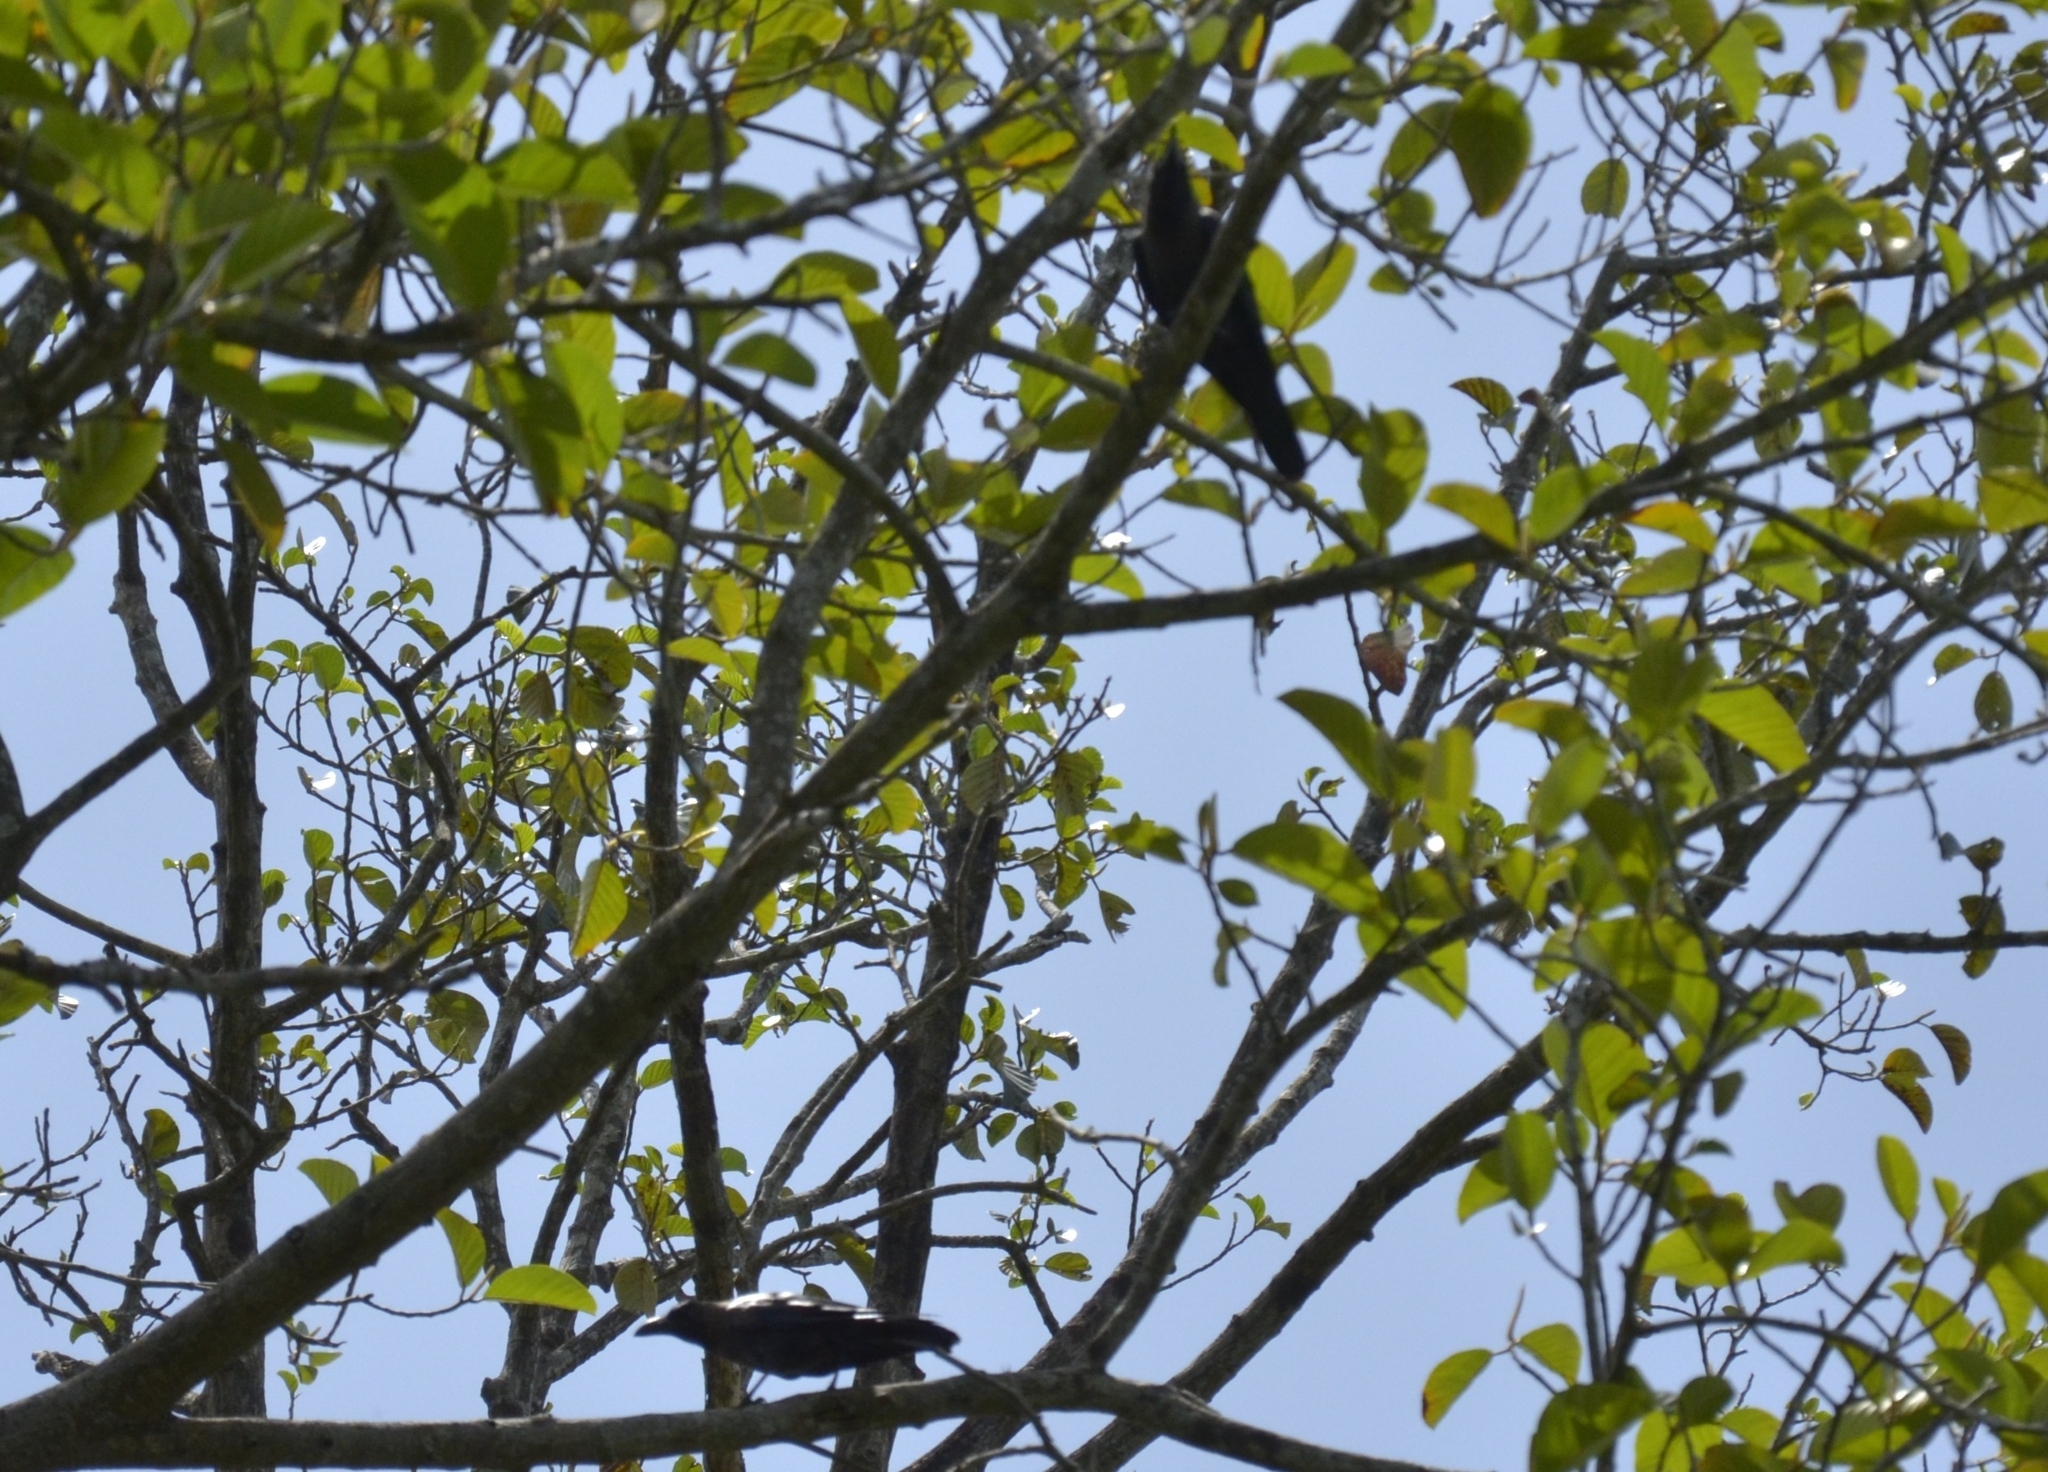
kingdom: Animalia
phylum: Chordata
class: Aves
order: Passeriformes
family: Corvidae
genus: Corvus
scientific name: Corvus splendens
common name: House crow
